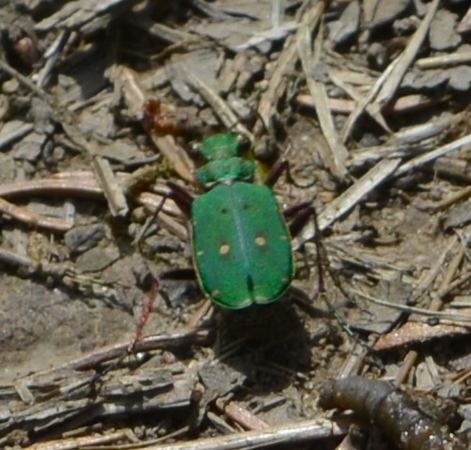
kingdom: Animalia
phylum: Arthropoda
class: Insecta
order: Coleoptera
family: Carabidae
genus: Cicindela
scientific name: Cicindela campestris
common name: Common tiger beetle
